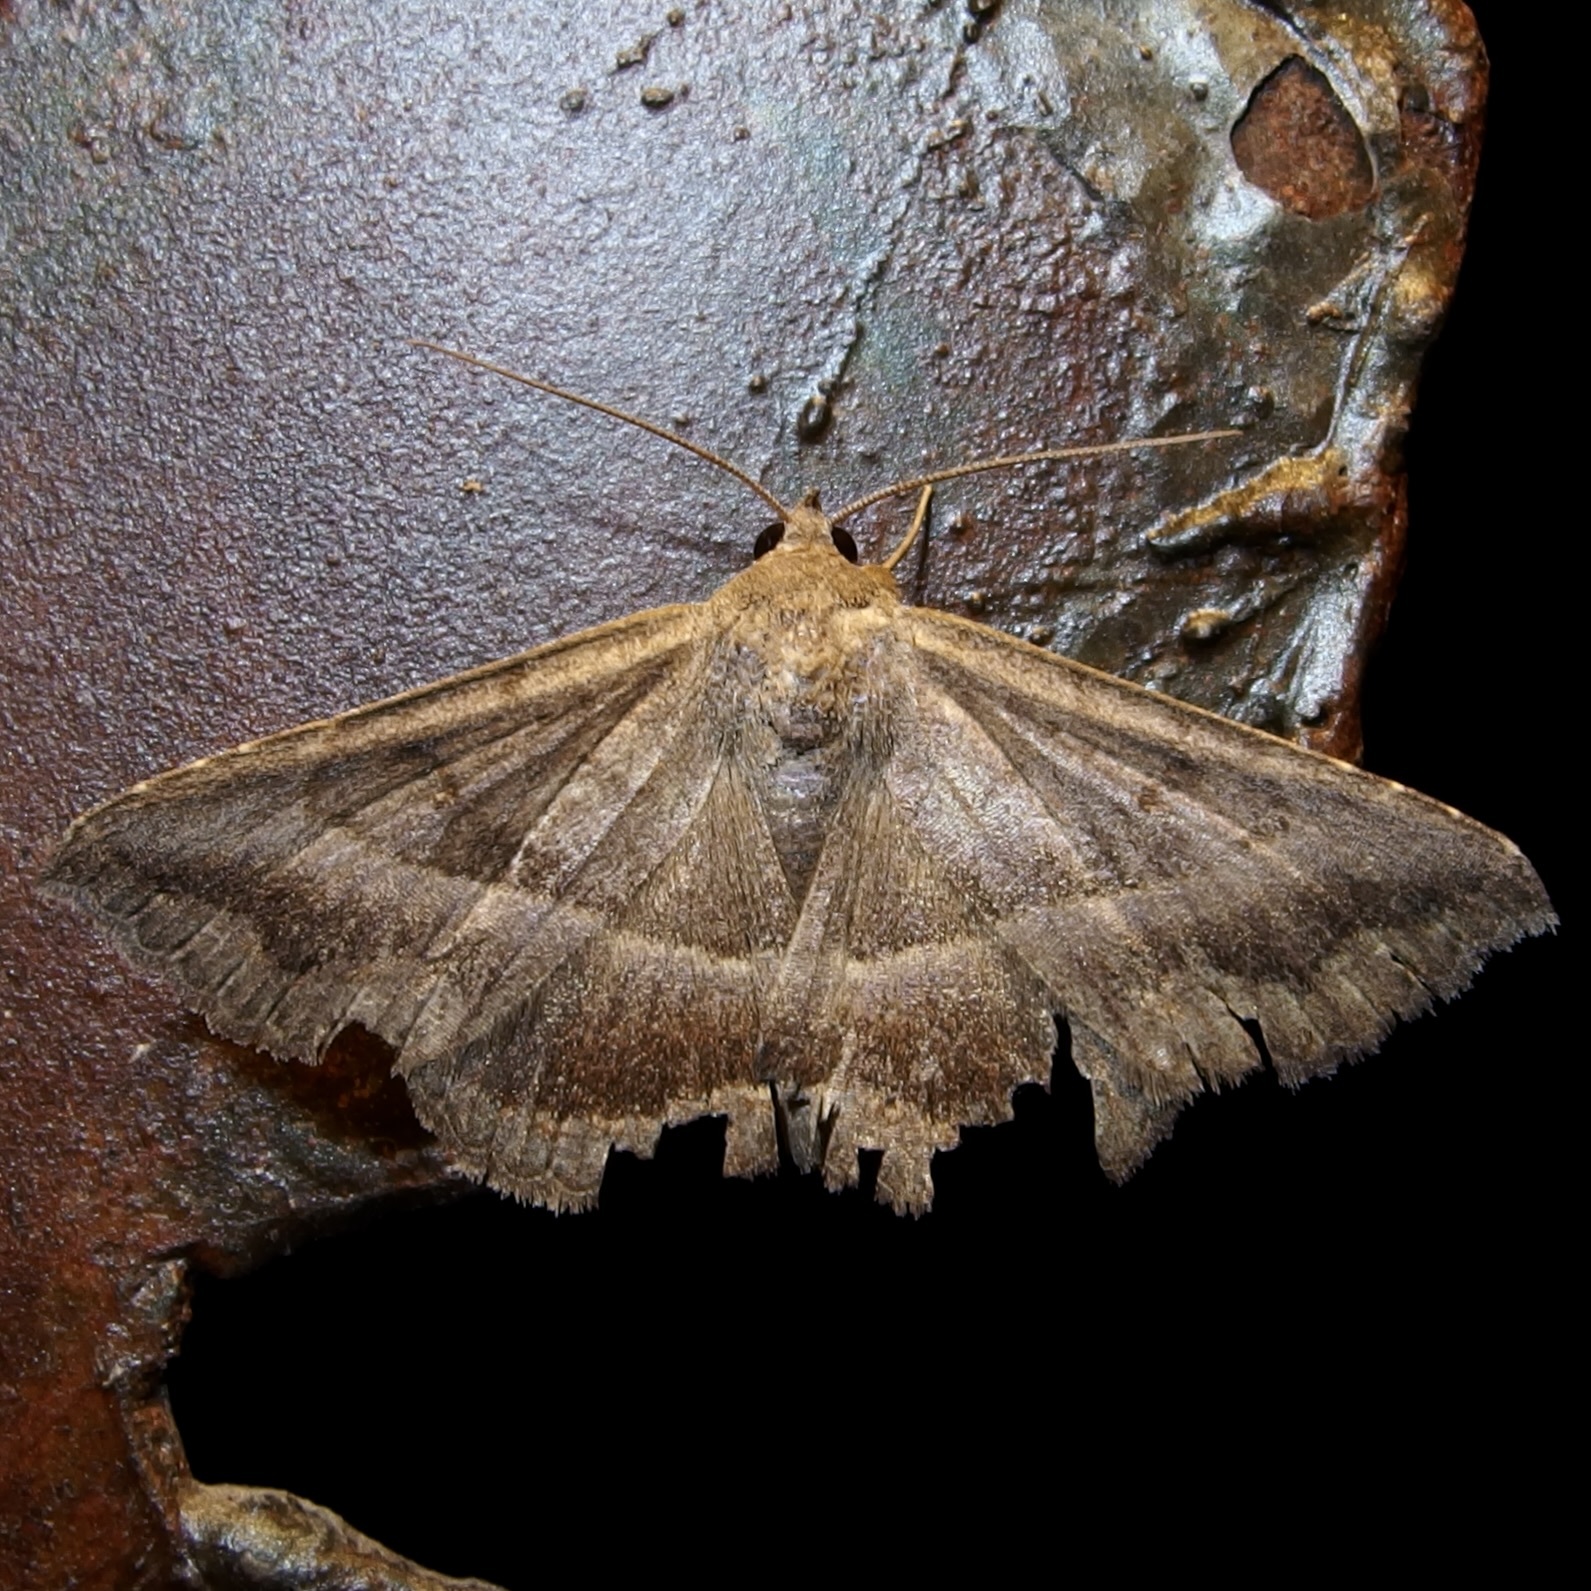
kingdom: Animalia
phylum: Arthropoda
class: Insecta
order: Lepidoptera
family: Erebidae
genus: Lesmone
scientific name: Lesmone griseipennis
